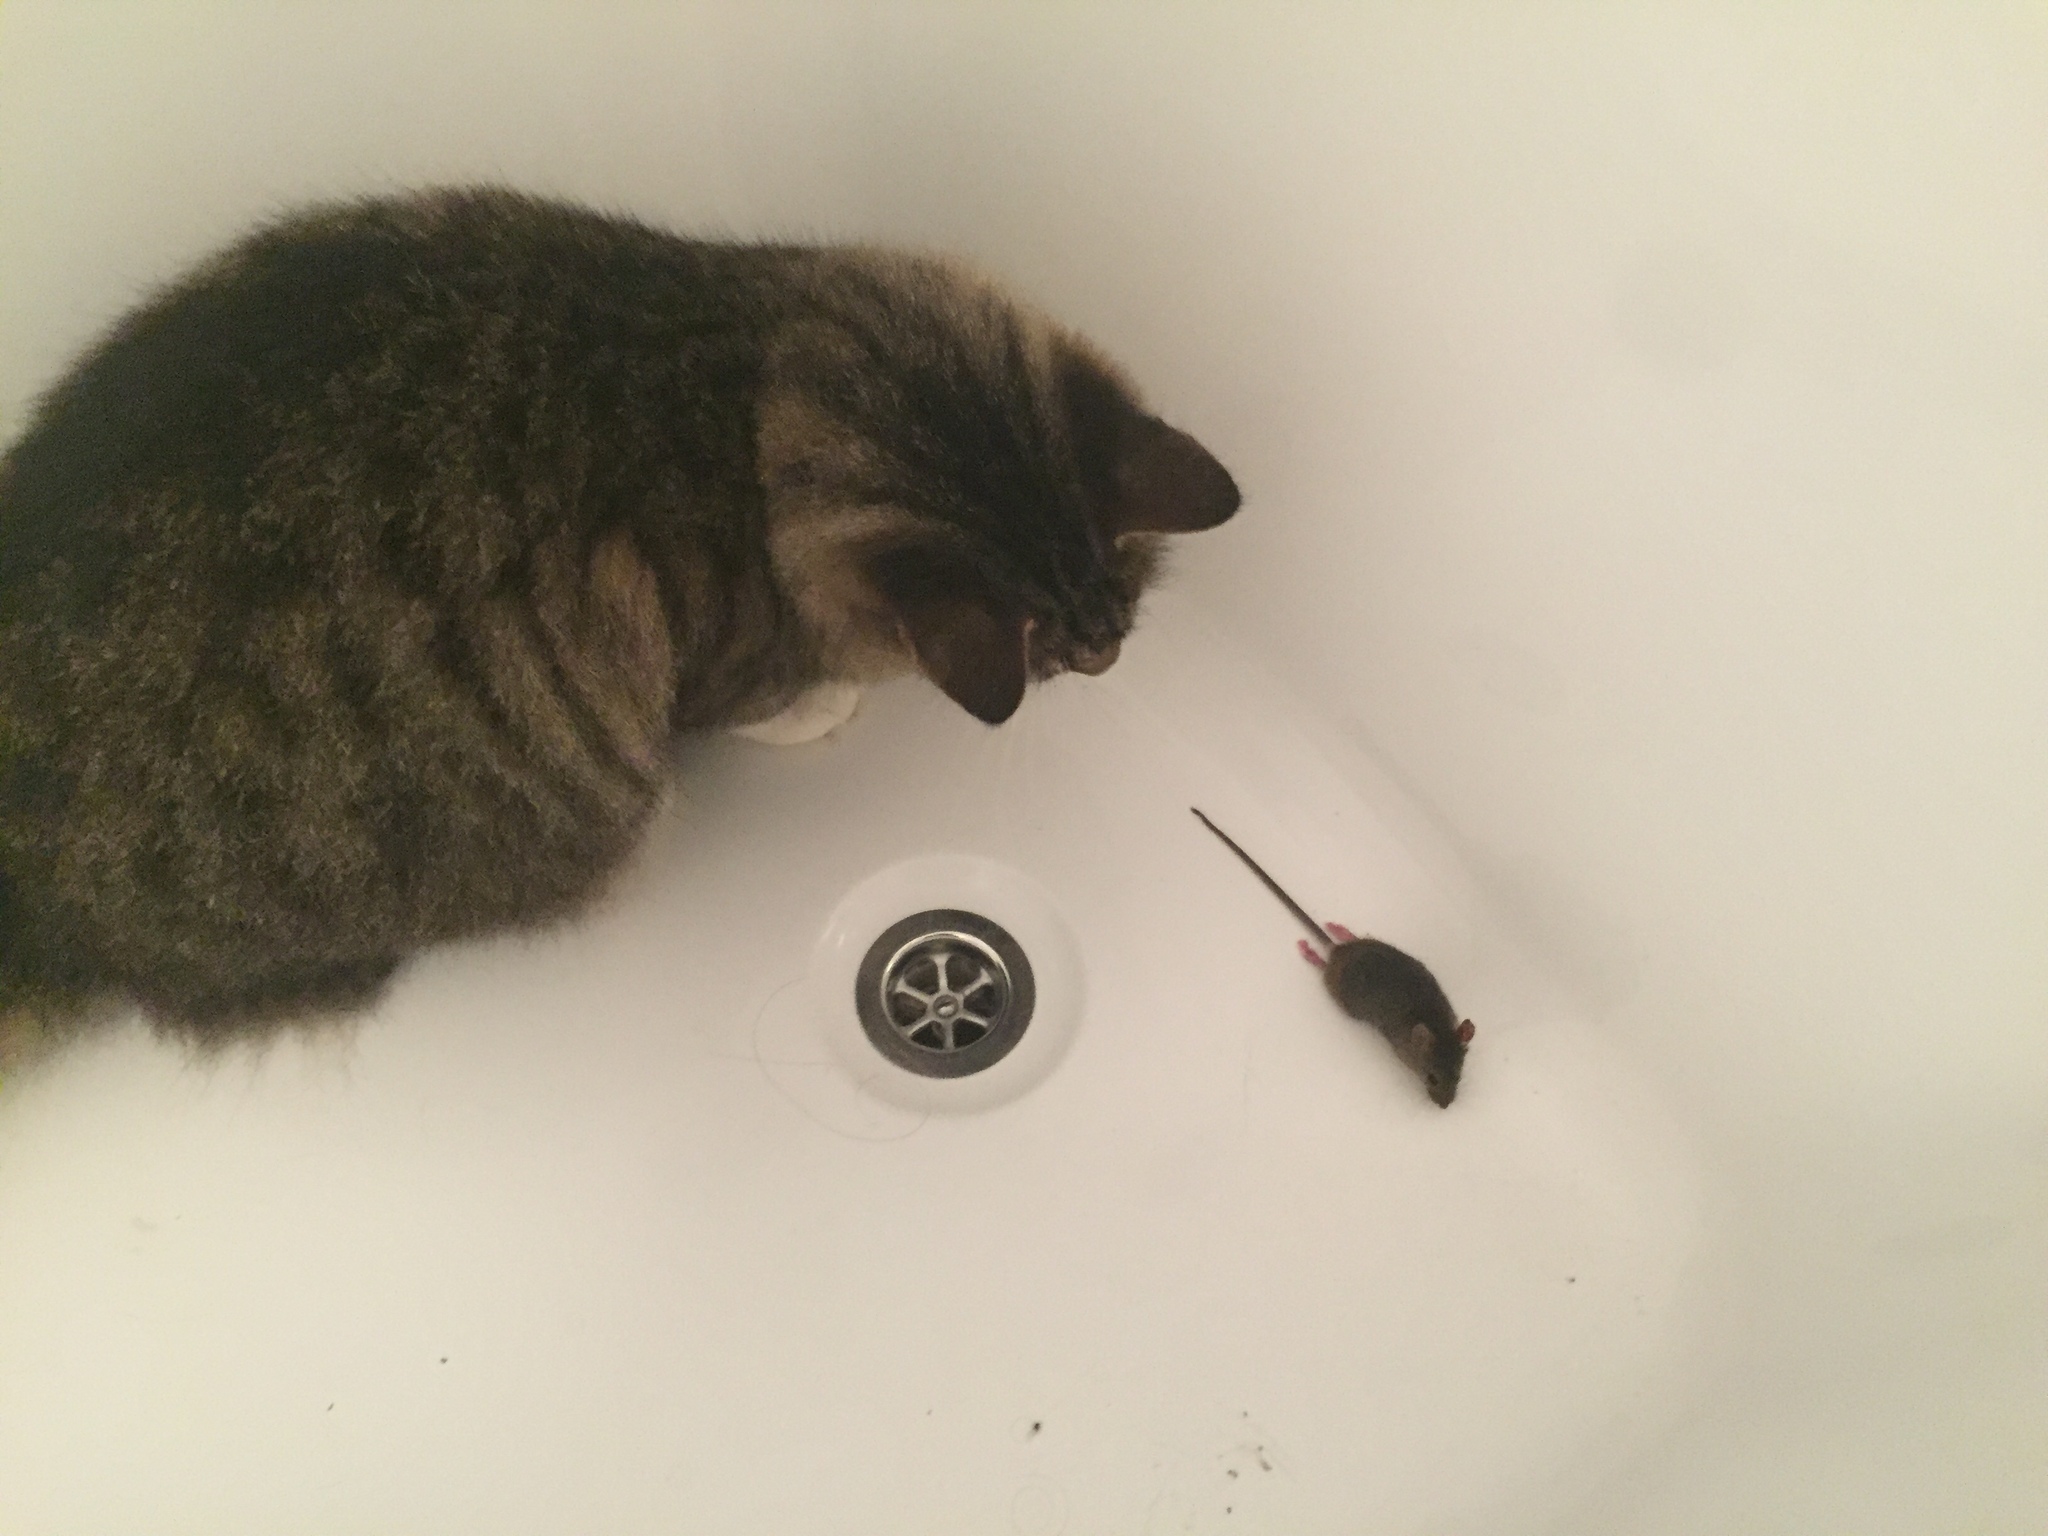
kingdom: Animalia
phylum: Chordata
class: Mammalia
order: Rodentia
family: Muridae
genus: Mus
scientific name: Mus musculus
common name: House mouse
